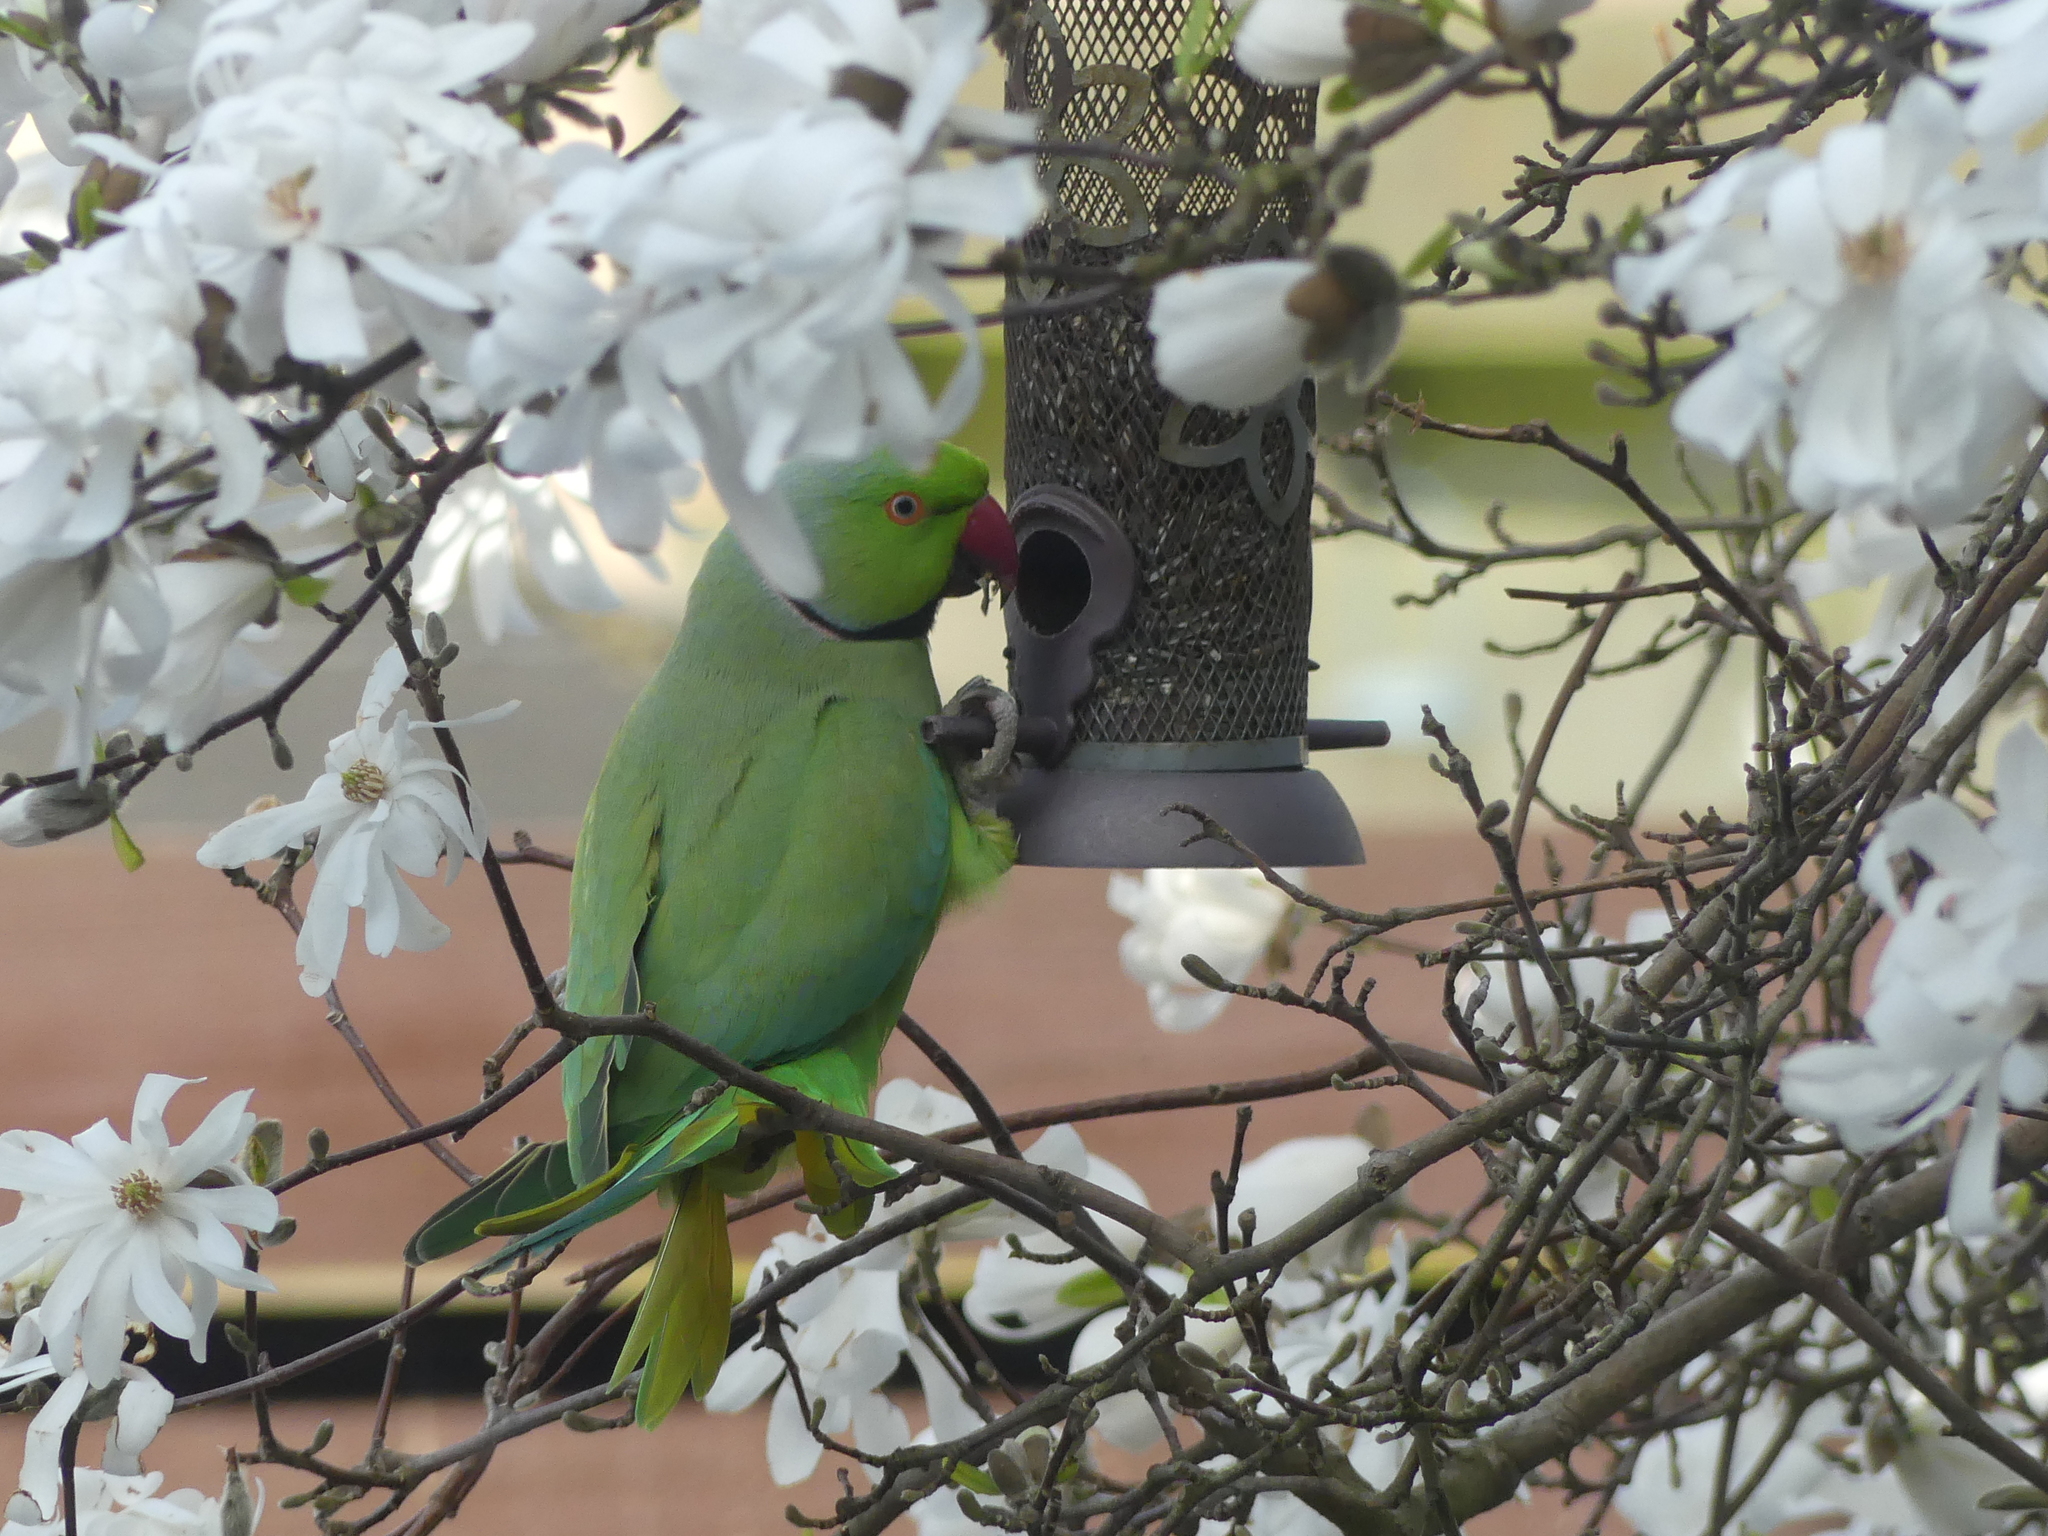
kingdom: Animalia
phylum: Chordata
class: Aves
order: Psittaciformes
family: Psittacidae
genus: Psittacula
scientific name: Psittacula krameri
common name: Rose-ringed parakeet
